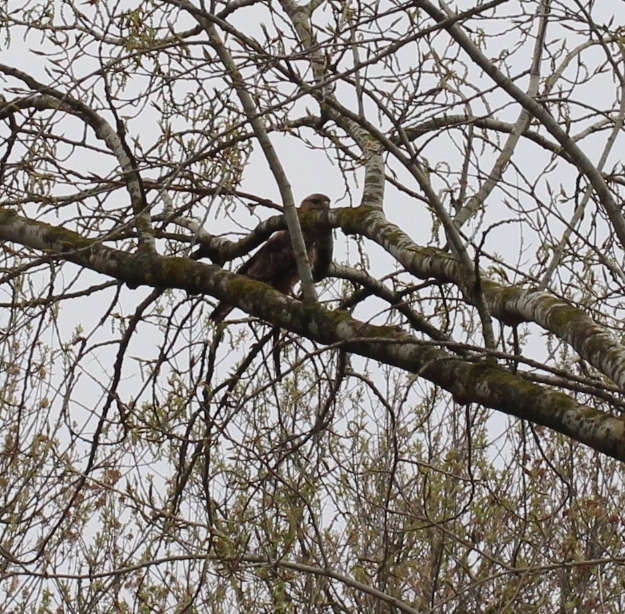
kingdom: Animalia
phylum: Chordata
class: Aves
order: Accipitriformes
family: Accipitridae
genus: Buteo
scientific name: Buteo buteo
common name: Common buzzard
